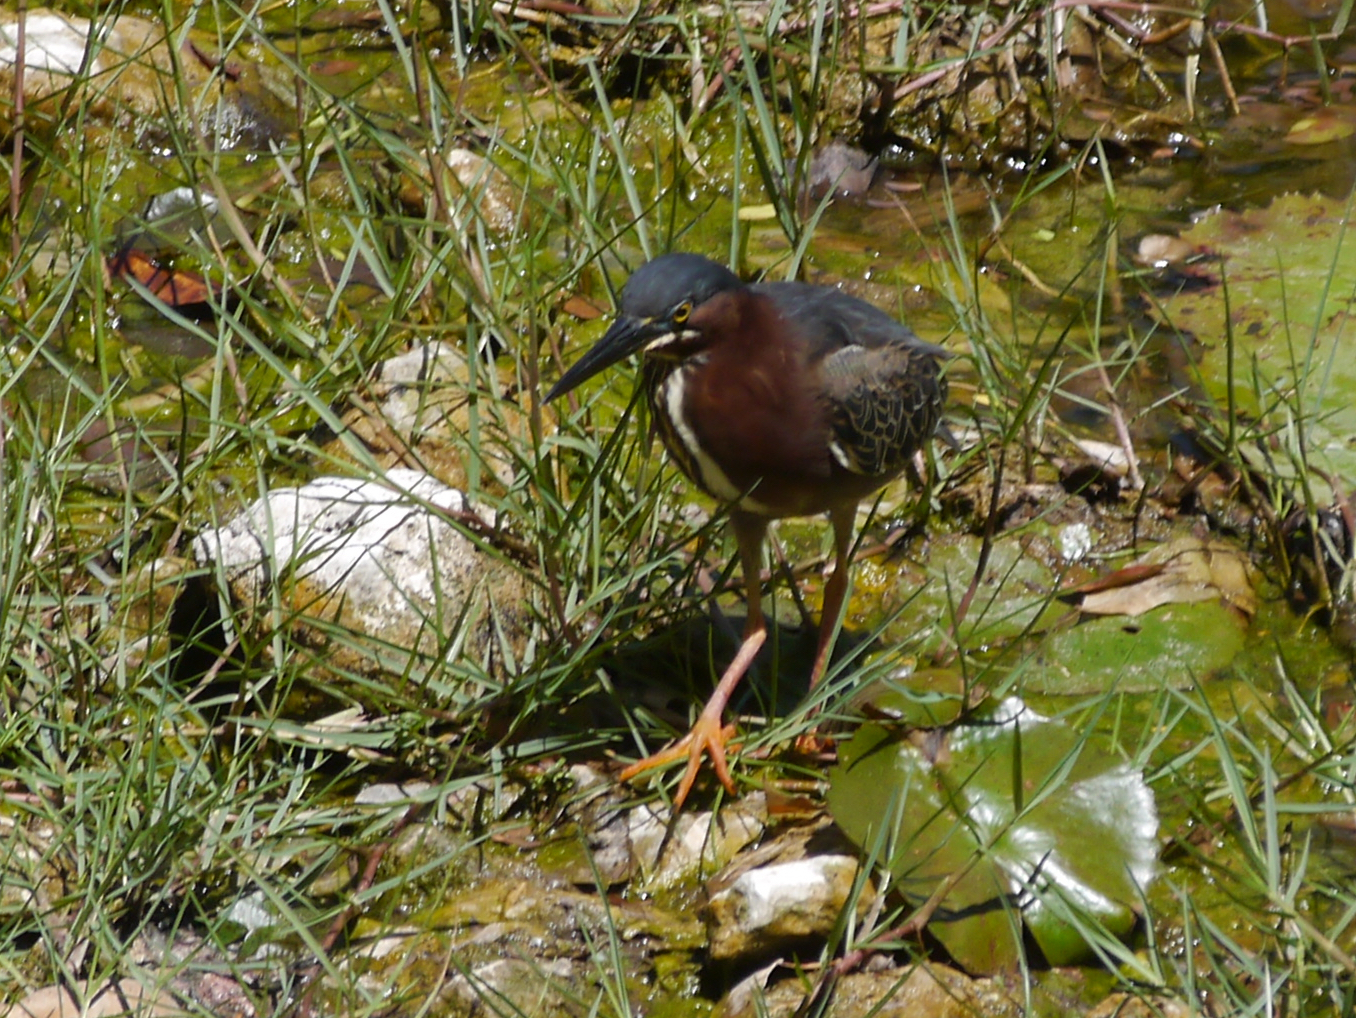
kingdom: Animalia
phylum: Chordata
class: Aves
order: Pelecaniformes
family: Ardeidae
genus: Butorides
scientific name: Butorides virescens
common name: Green heron
